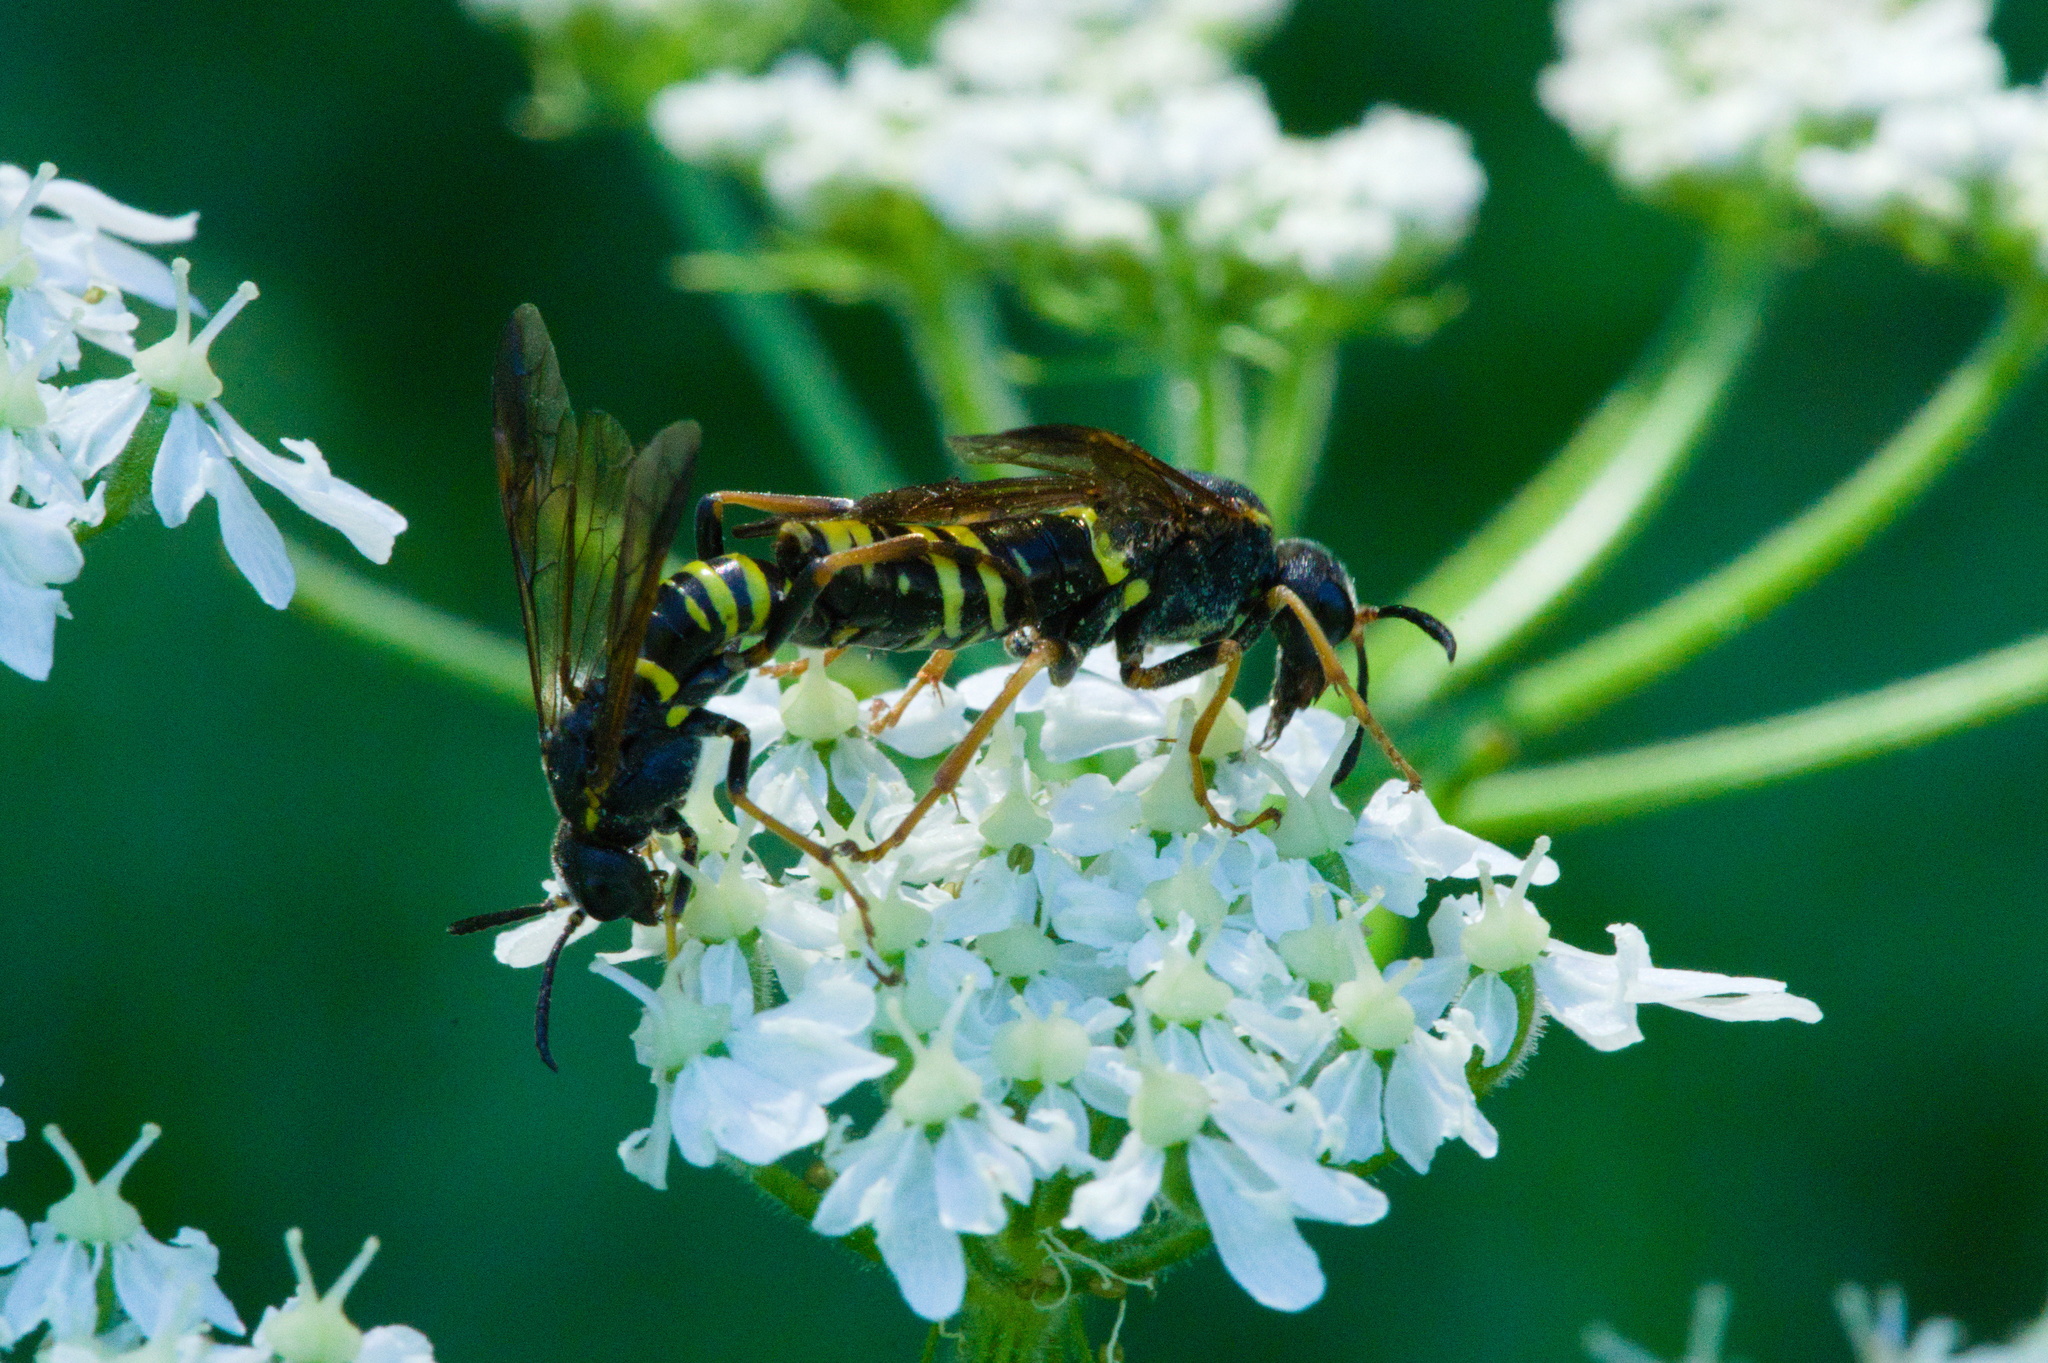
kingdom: Animalia
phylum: Arthropoda
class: Insecta
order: Hymenoptera
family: Tenthredinidae
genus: Tenthredo
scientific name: Tenthredo vespa
